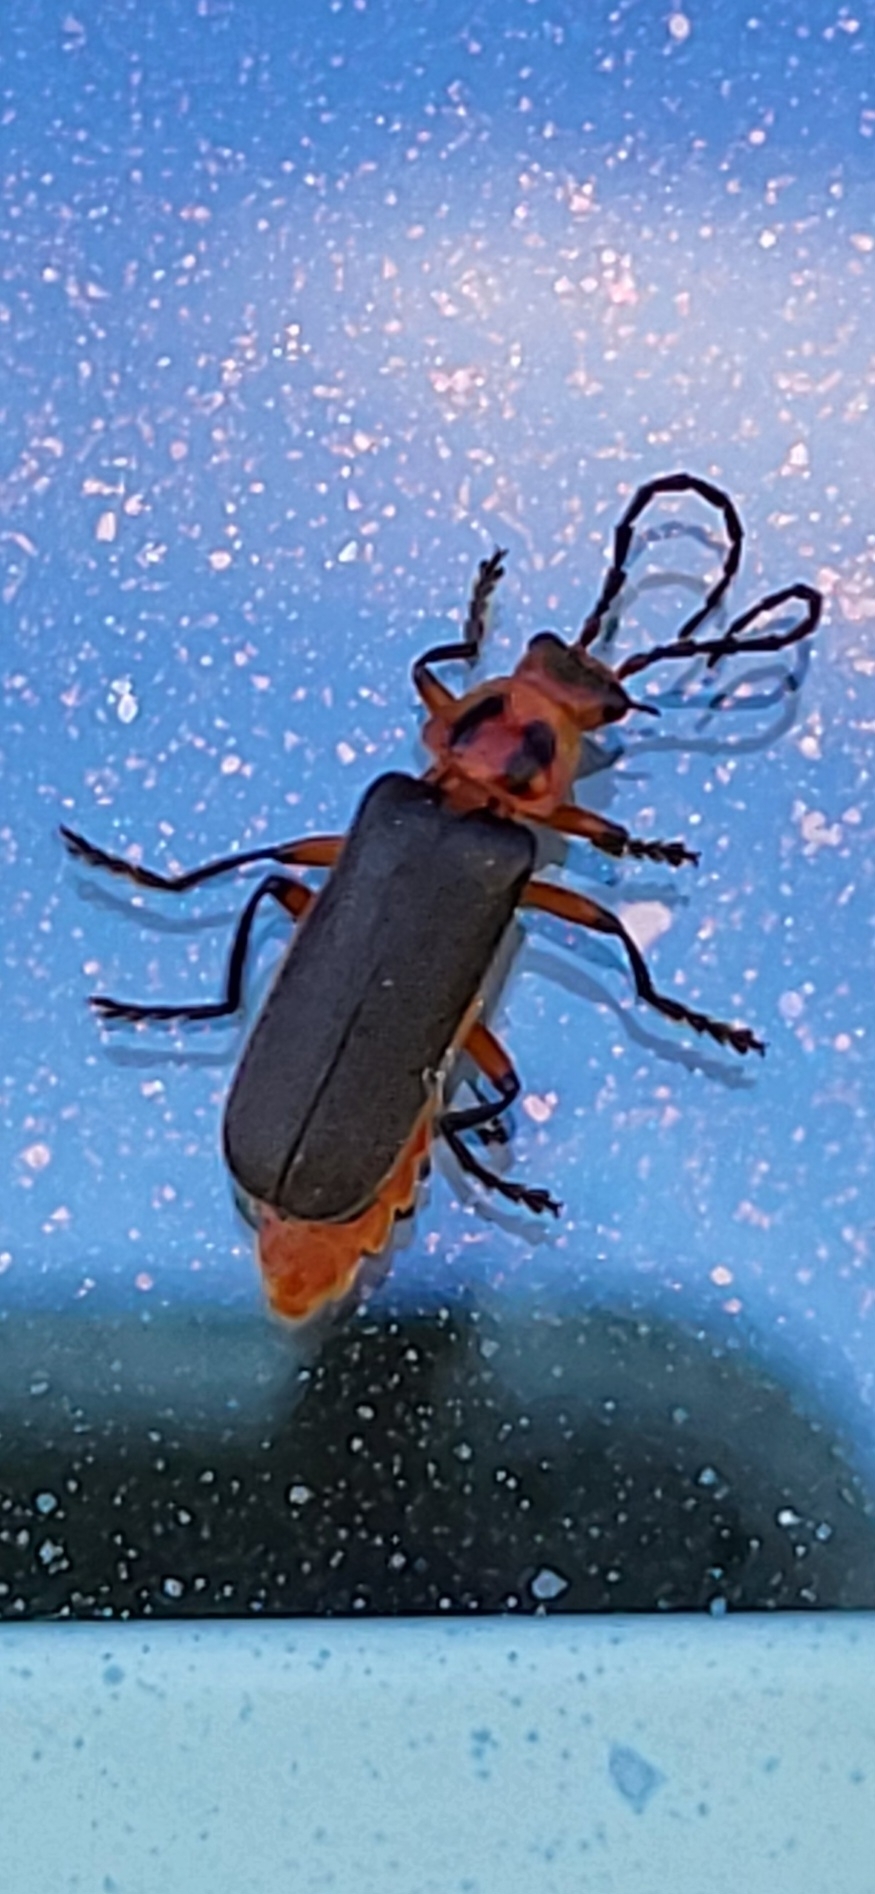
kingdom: Animalia
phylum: Arthropoda
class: Insecta
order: Coleoptera
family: Cantharidae
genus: Atalantycha
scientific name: Atalantycha bilineata
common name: Two-lined leatherwing
